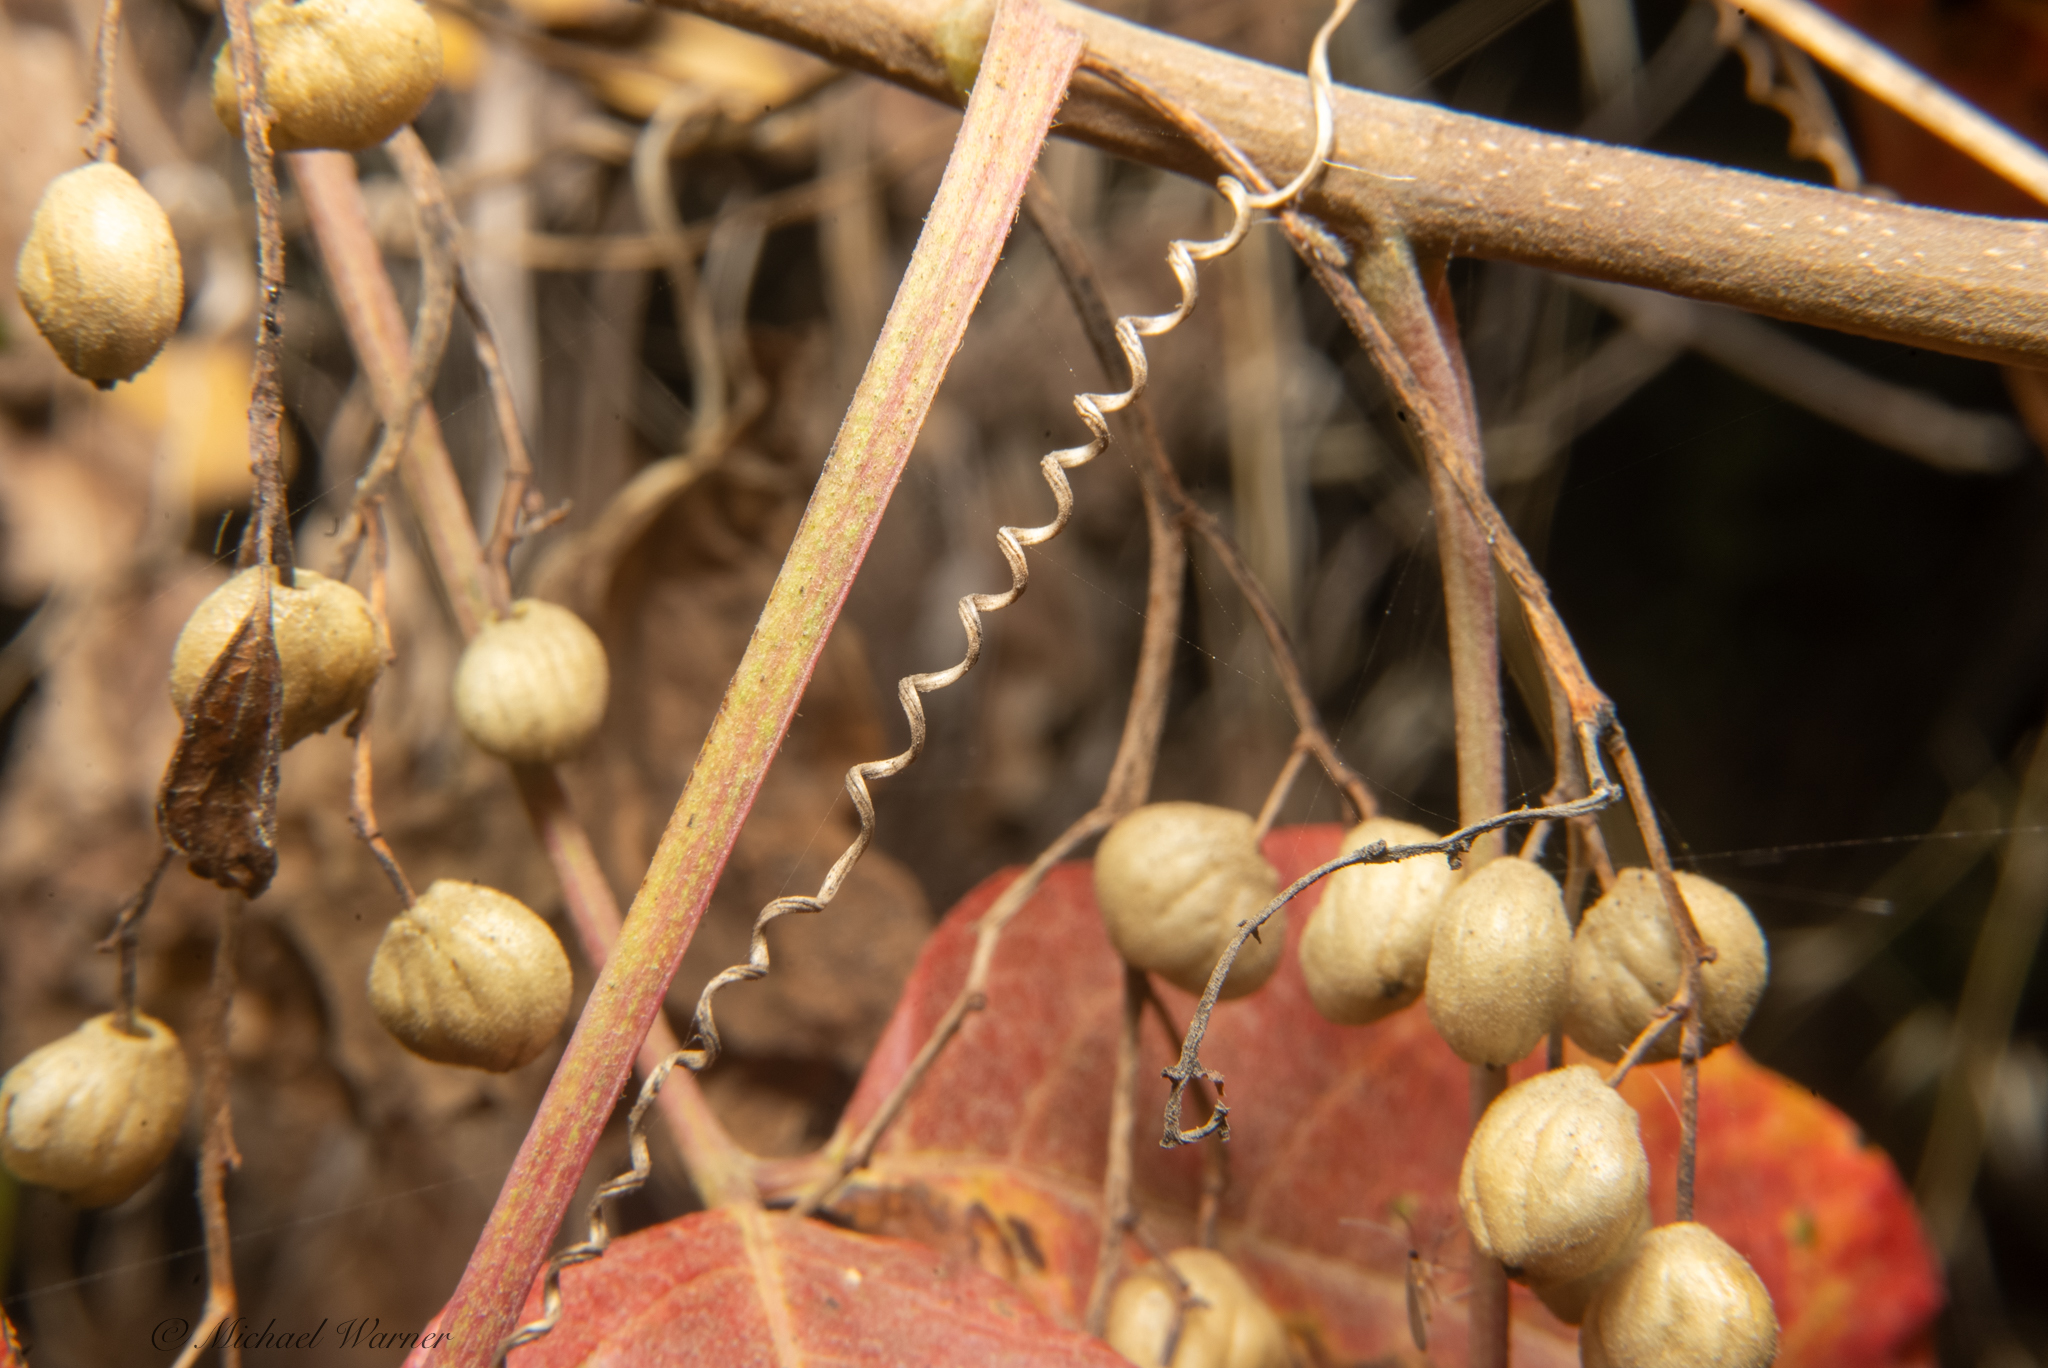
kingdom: Plantae
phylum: Tracheophyta
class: Magnoliopsida
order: Sapindales
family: Anacardiaceae
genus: Toxicodendron
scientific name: Toxicodendron diversilobum
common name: Pacific poison-oak
